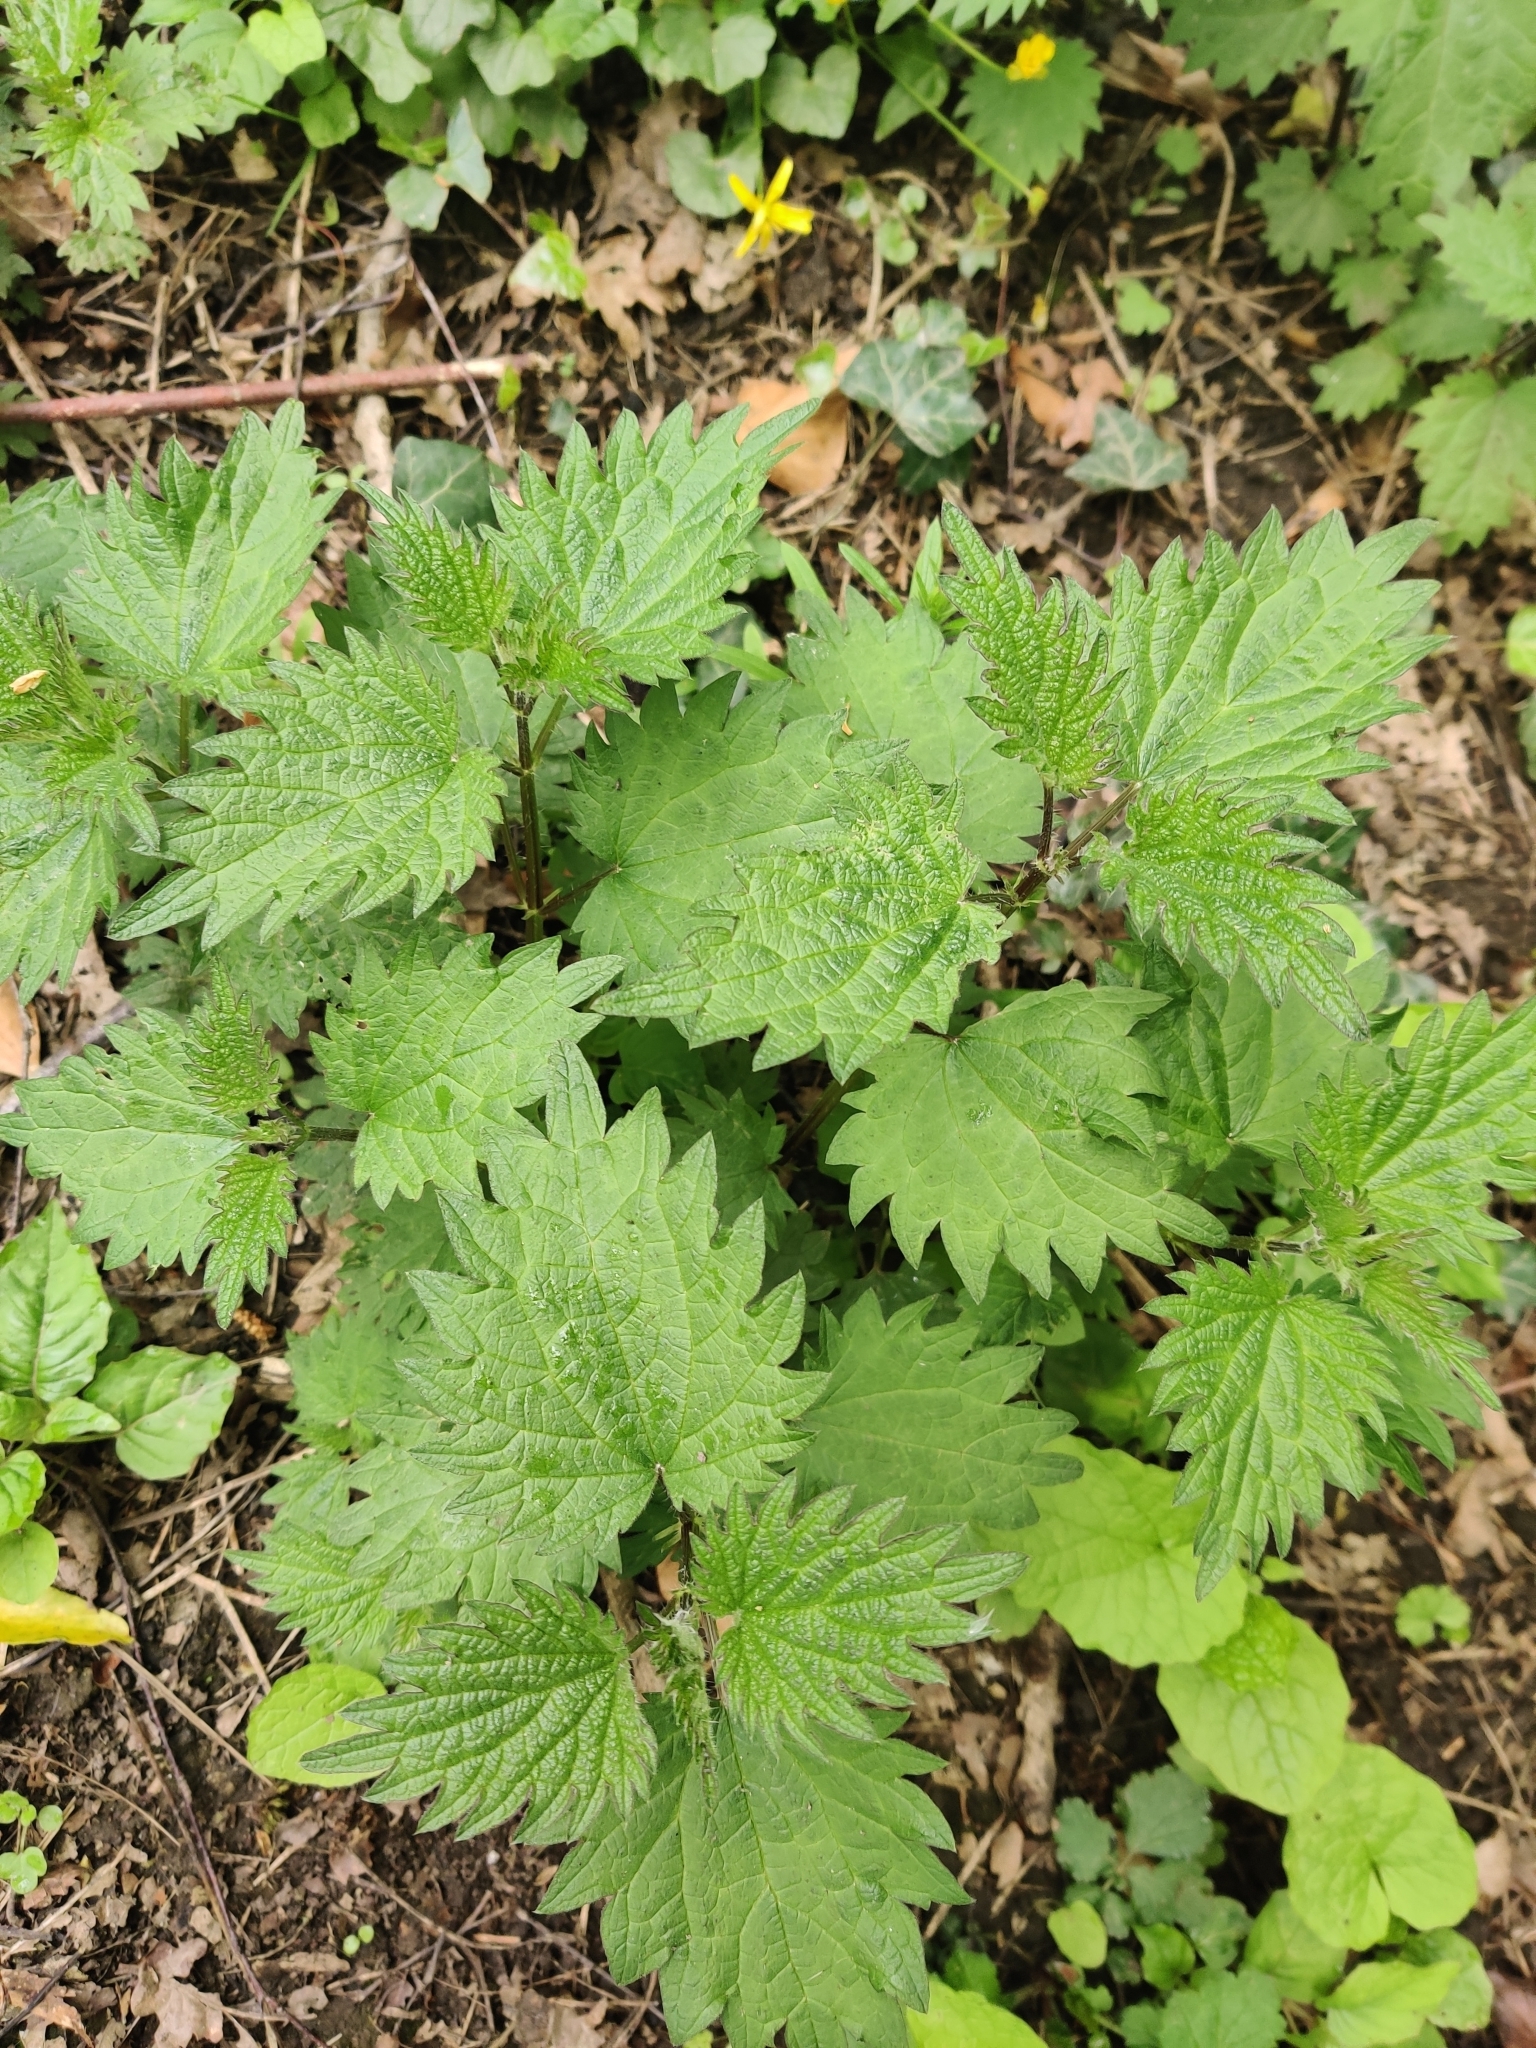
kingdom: Plantae
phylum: Tracheophyta
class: Magnoliopsida
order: Rosales
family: Urticaceae
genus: Urtica
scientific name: Urtica dioica
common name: Common nettle
